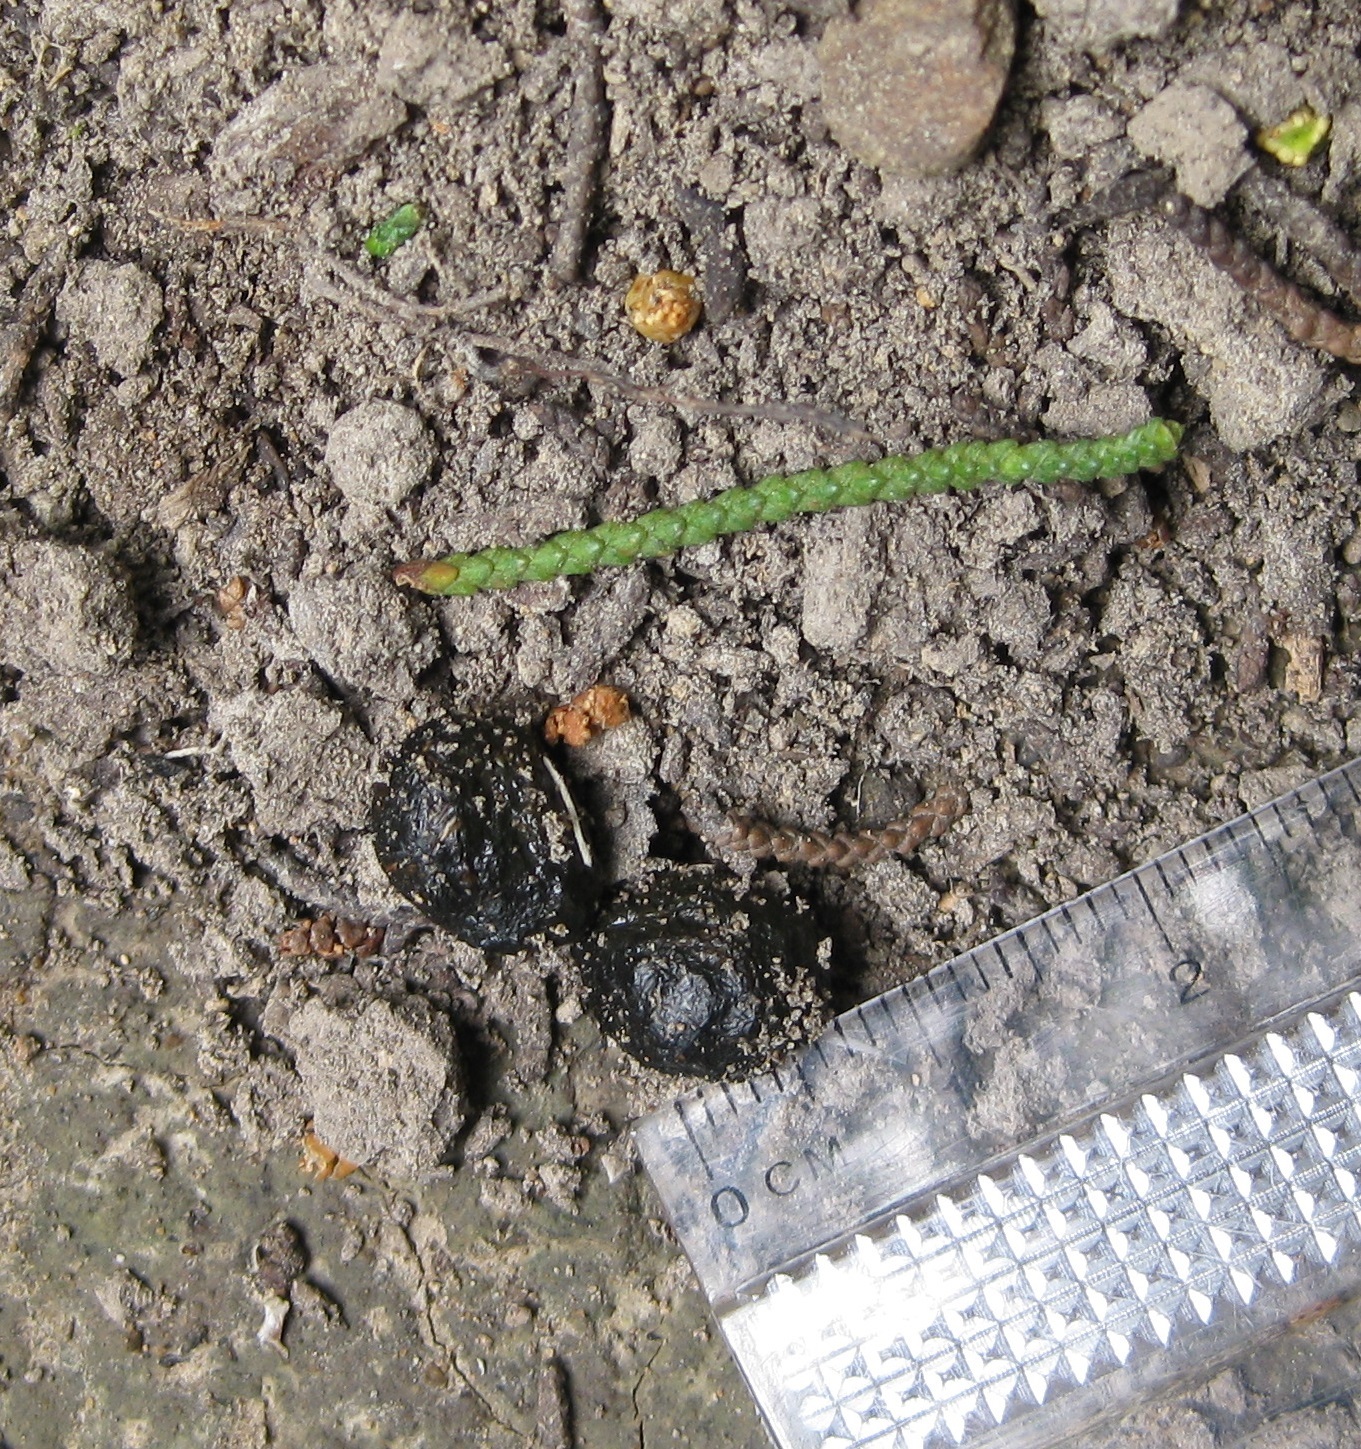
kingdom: Animalia
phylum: Chordata
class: Mammalia
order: Lagomorpha
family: Leporidae
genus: Oryctolagus
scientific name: Oryctolagus cuniculus
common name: European rabbit
